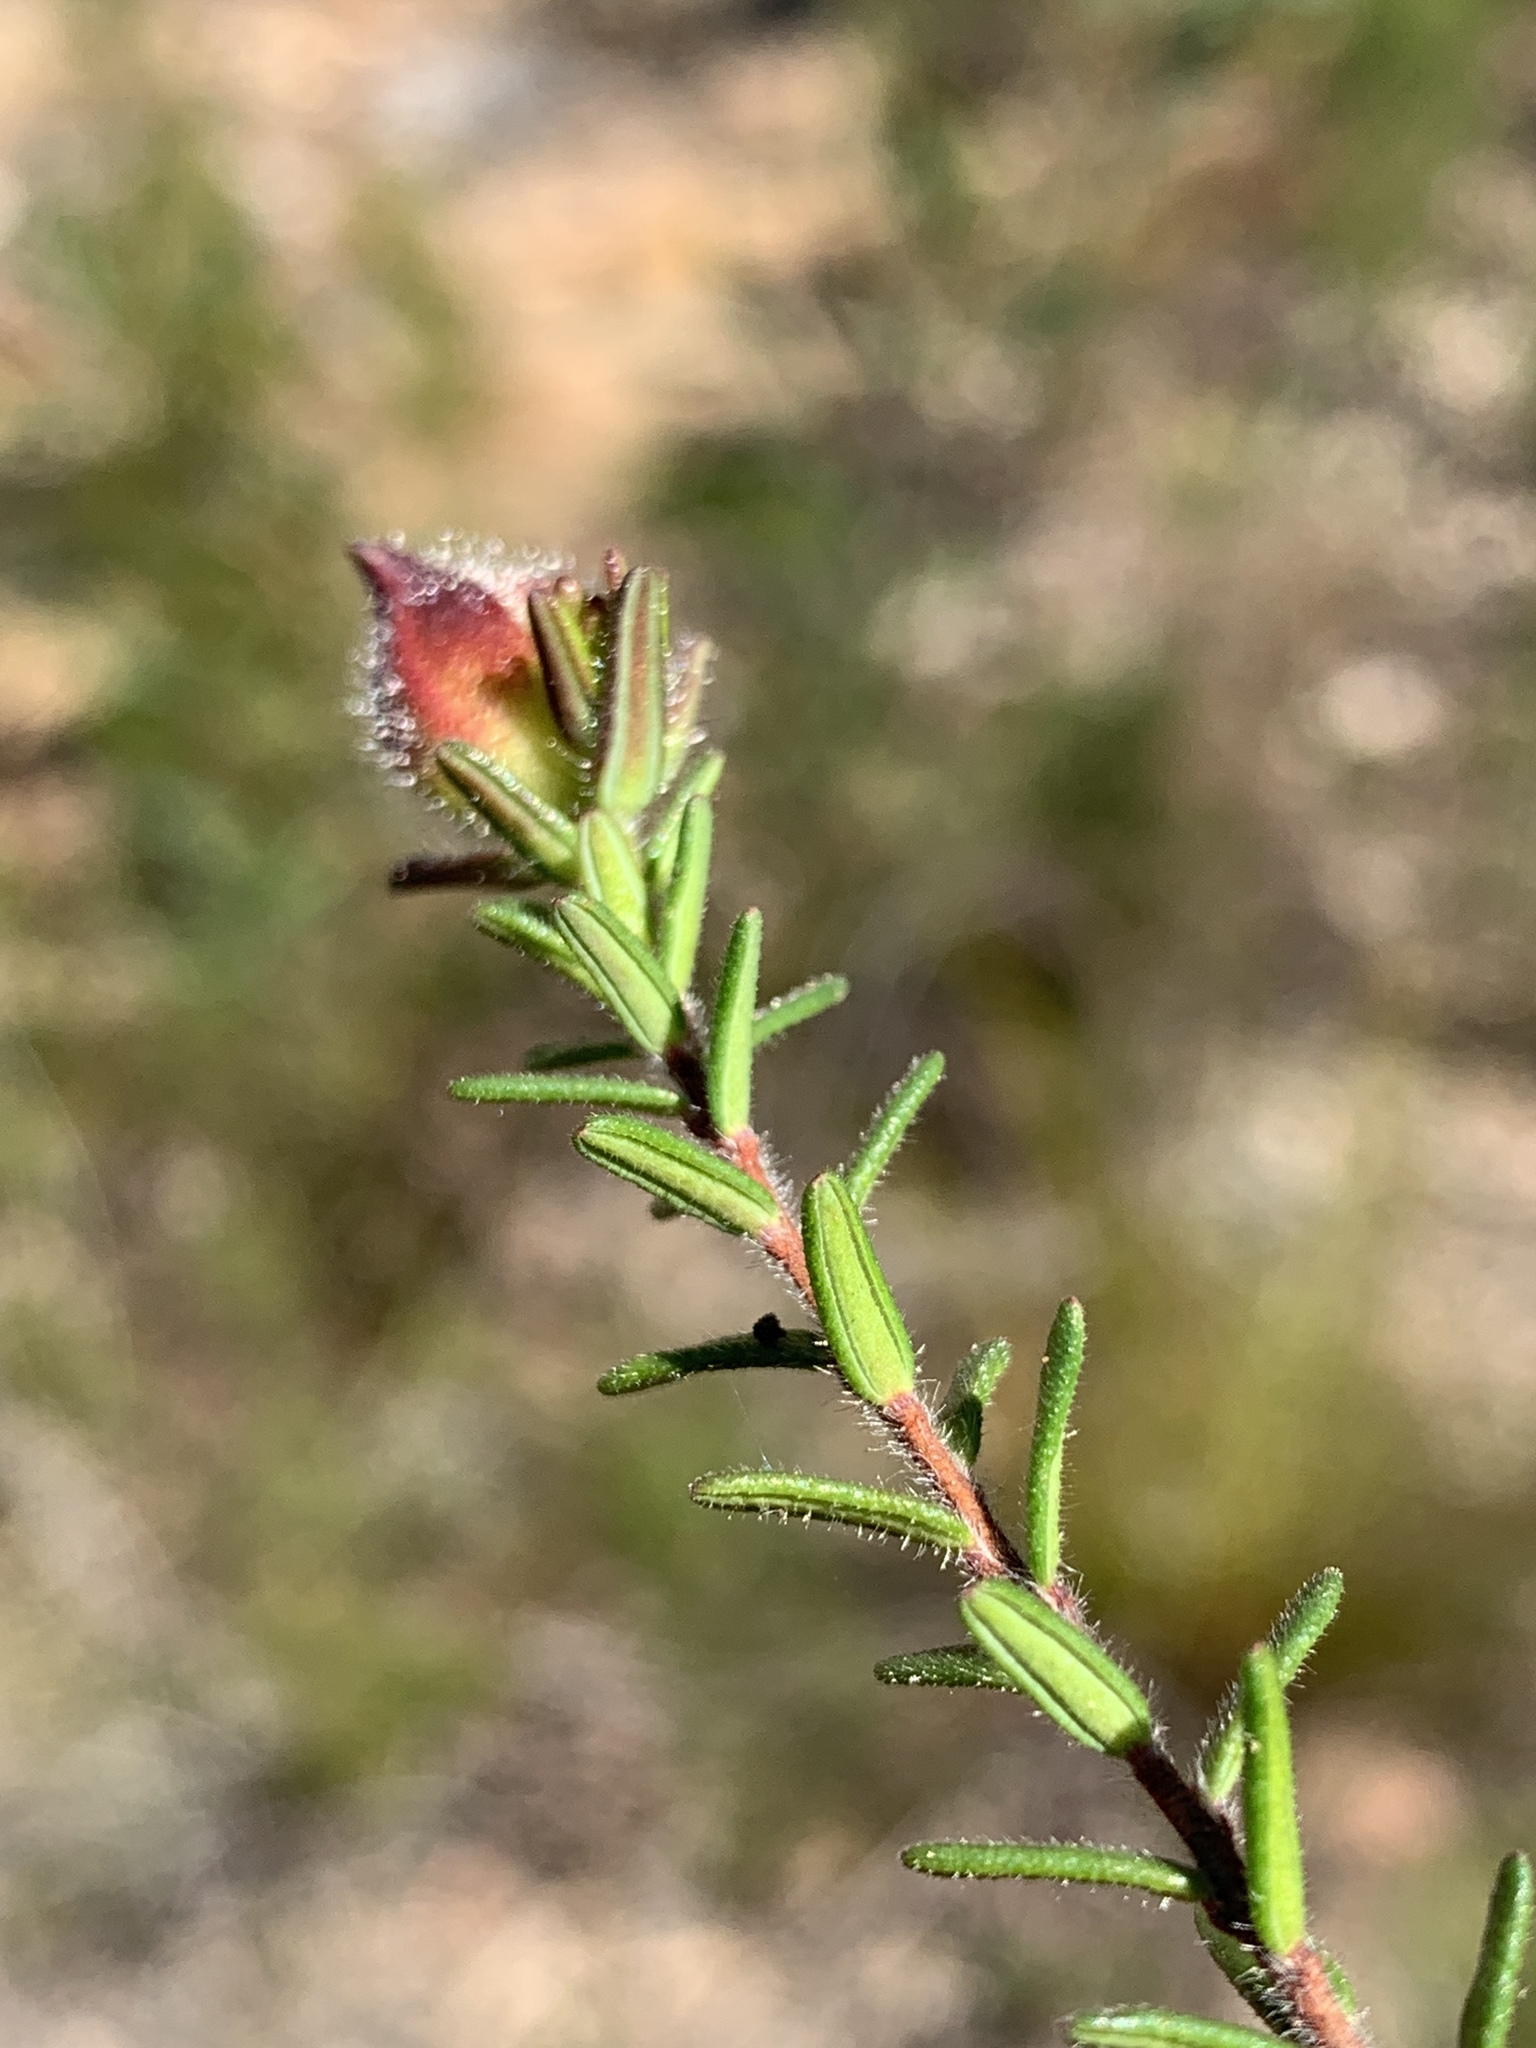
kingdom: Plantae
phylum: Tracheophyta
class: Magnoliopsida
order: Dilleniales
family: Dilleniaceae
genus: Hibbertia
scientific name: Hibbertia puberula
